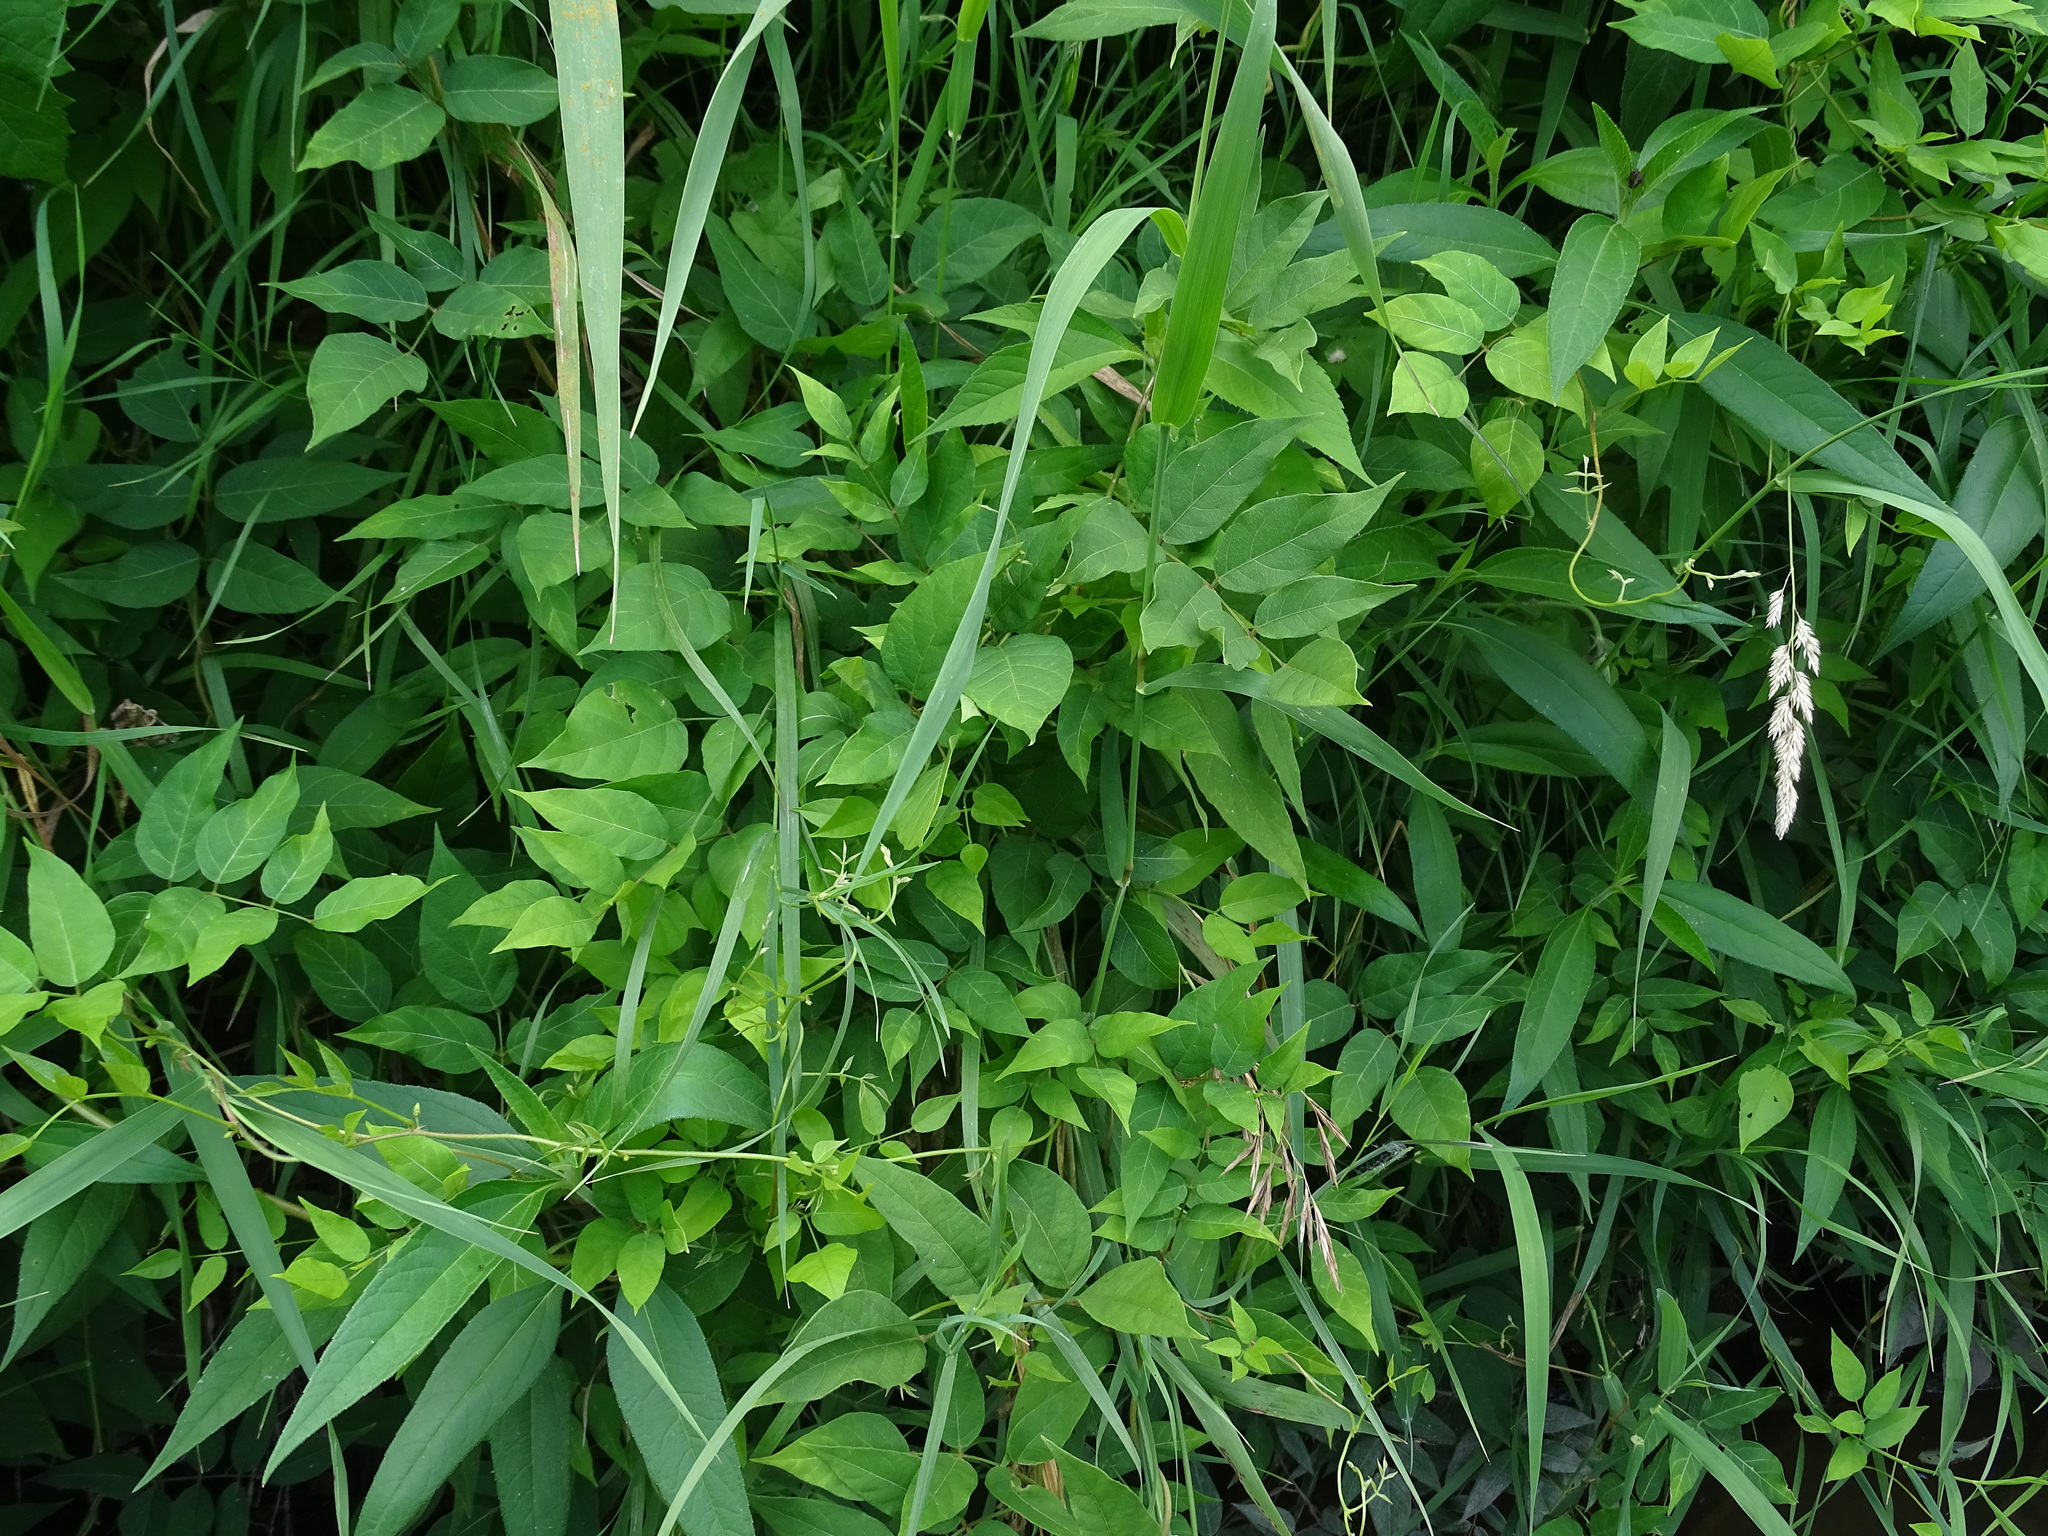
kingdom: Plantae
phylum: Tracheophyta
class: Magnoliopsida
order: Fabales
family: Fabaceae
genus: Apios
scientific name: Apios americana
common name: American potato-bean
